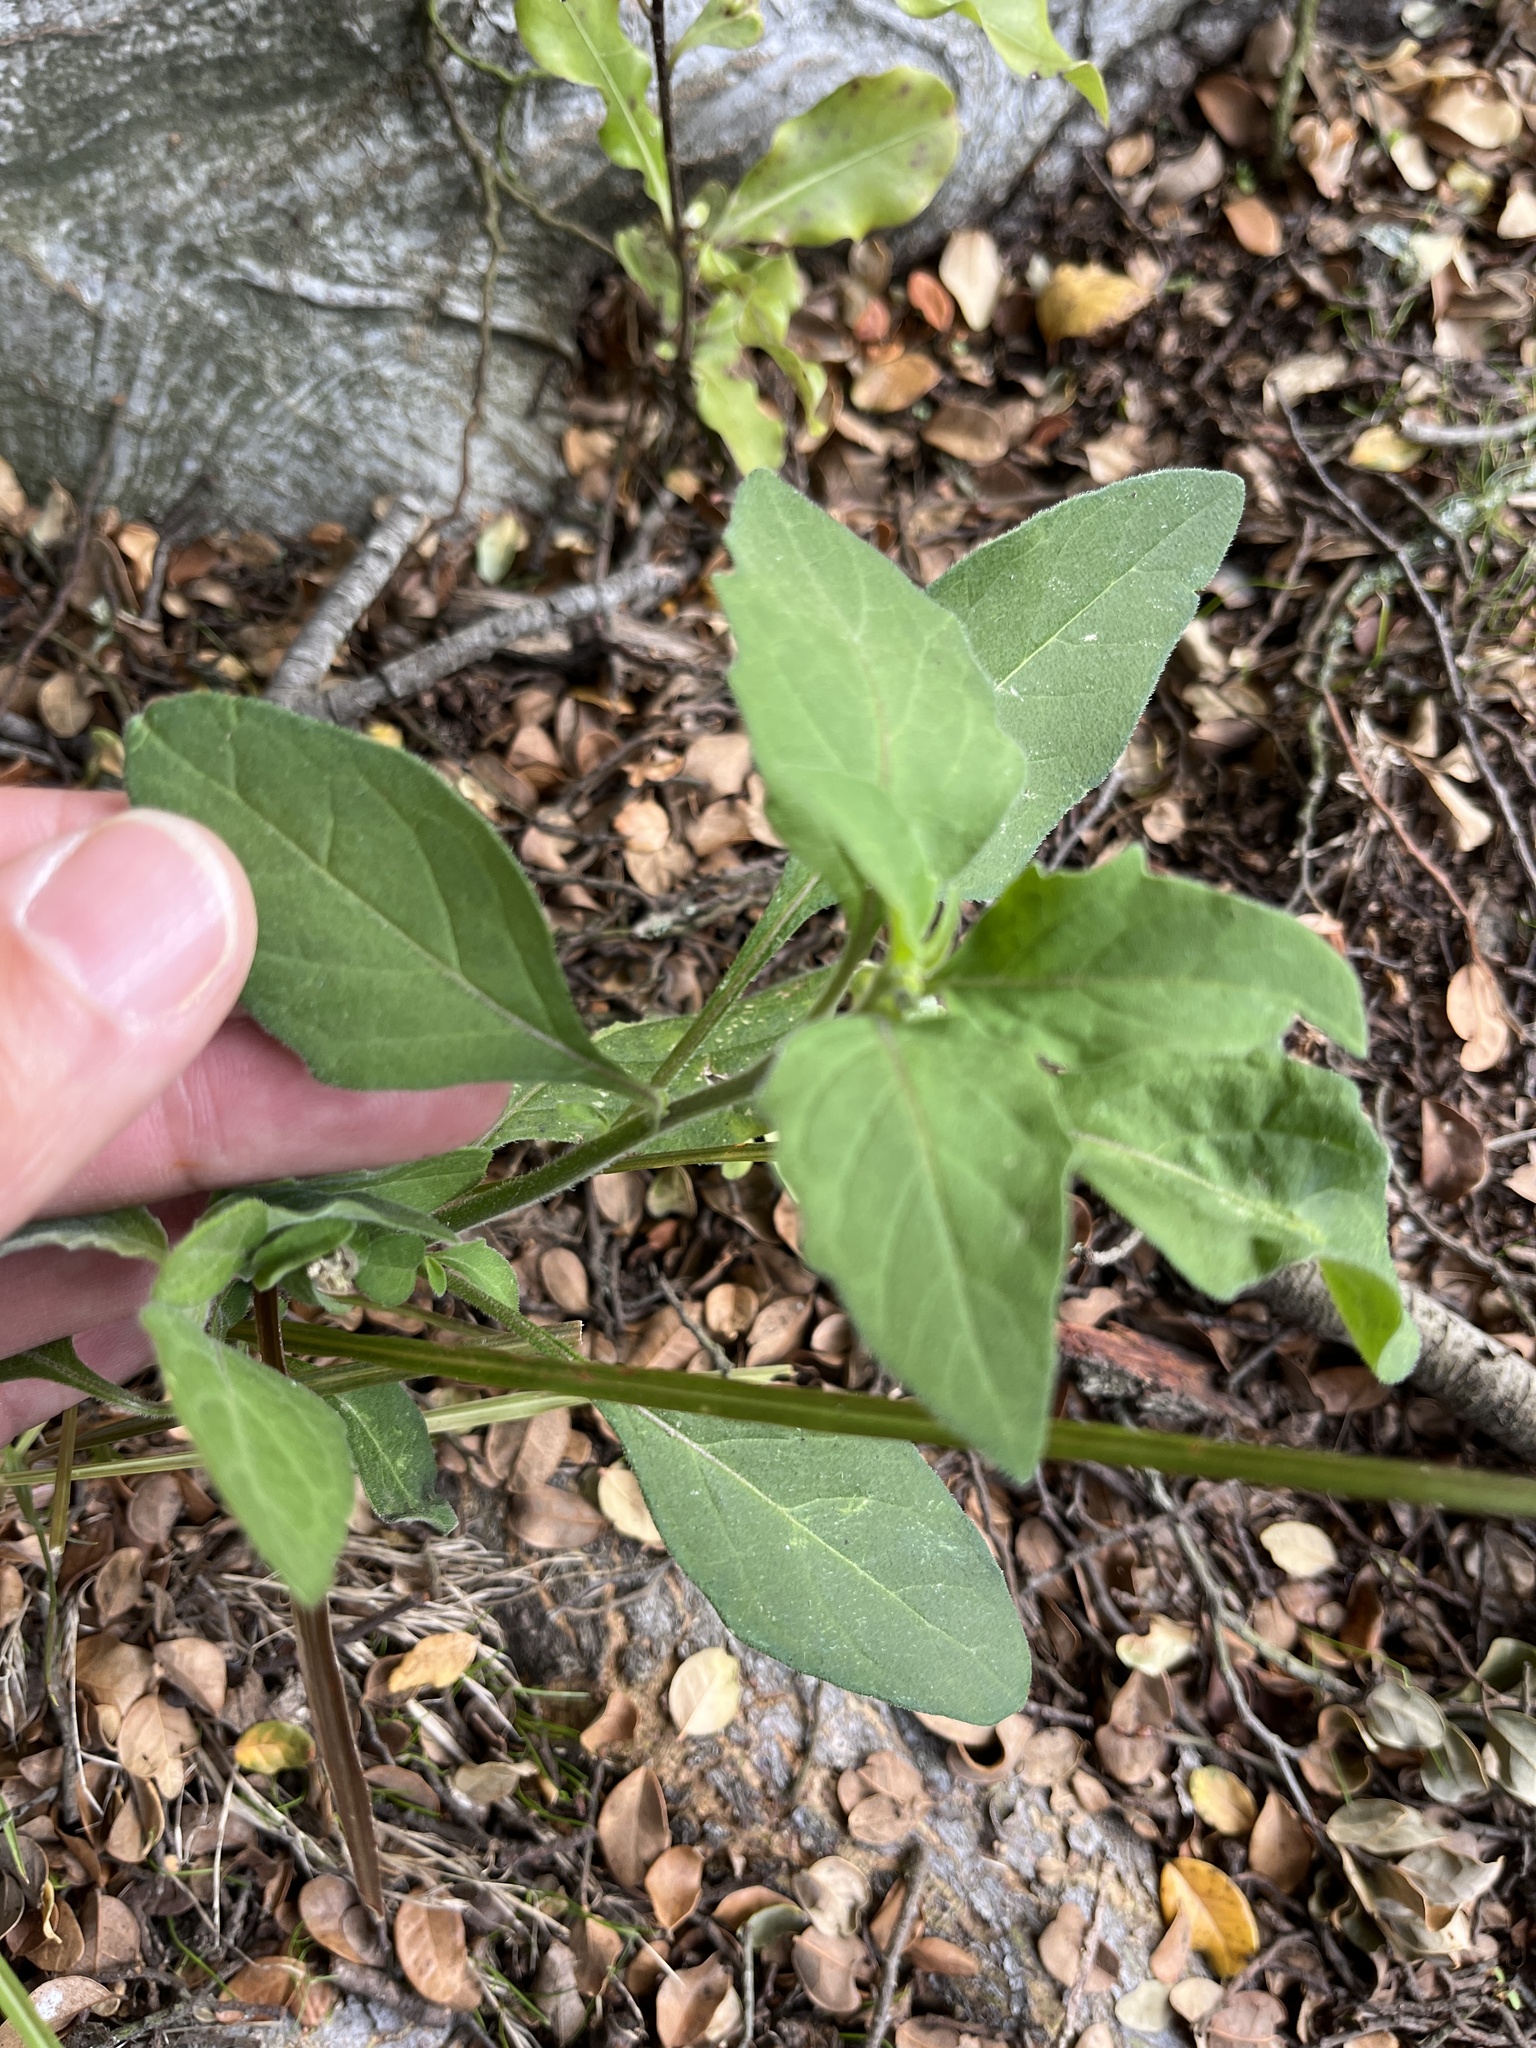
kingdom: Plantae
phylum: Tracheophyta
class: Magnoliopsida
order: Solanales
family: Solanaceae
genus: Solanum
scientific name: Solanum chenopodioides
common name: Tall nightshade
